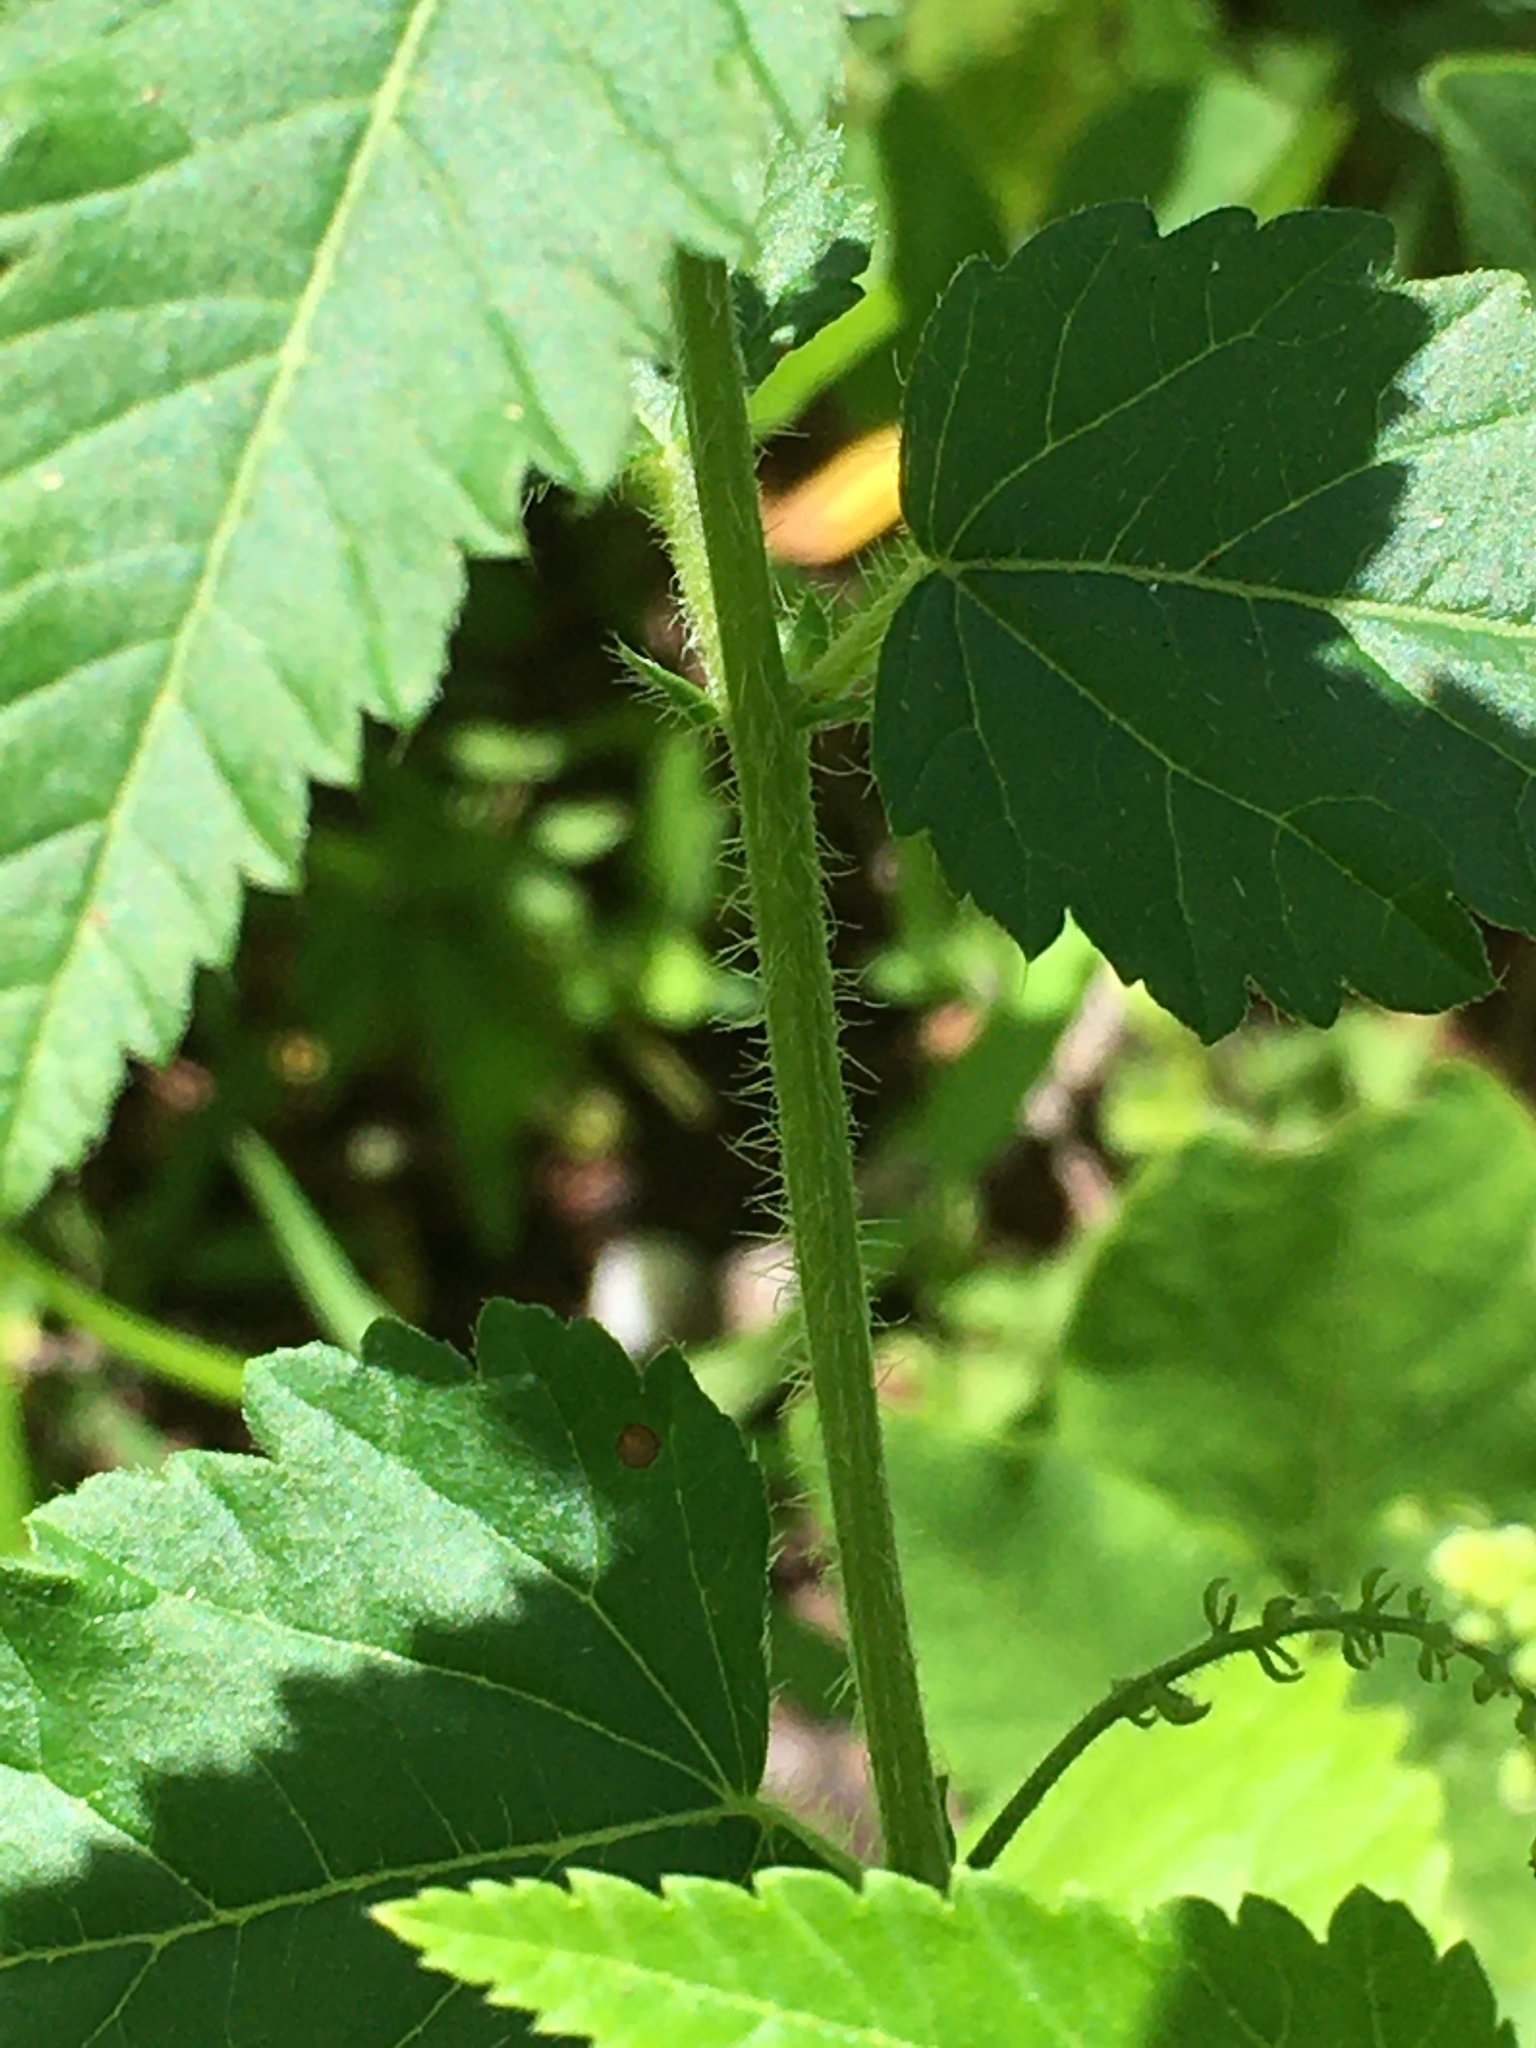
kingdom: Plantae
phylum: Tracheophyta
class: Magnoliopsida
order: Malpighiales
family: Euphorbiaceae
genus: Tragia
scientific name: Tragia urticifolia
